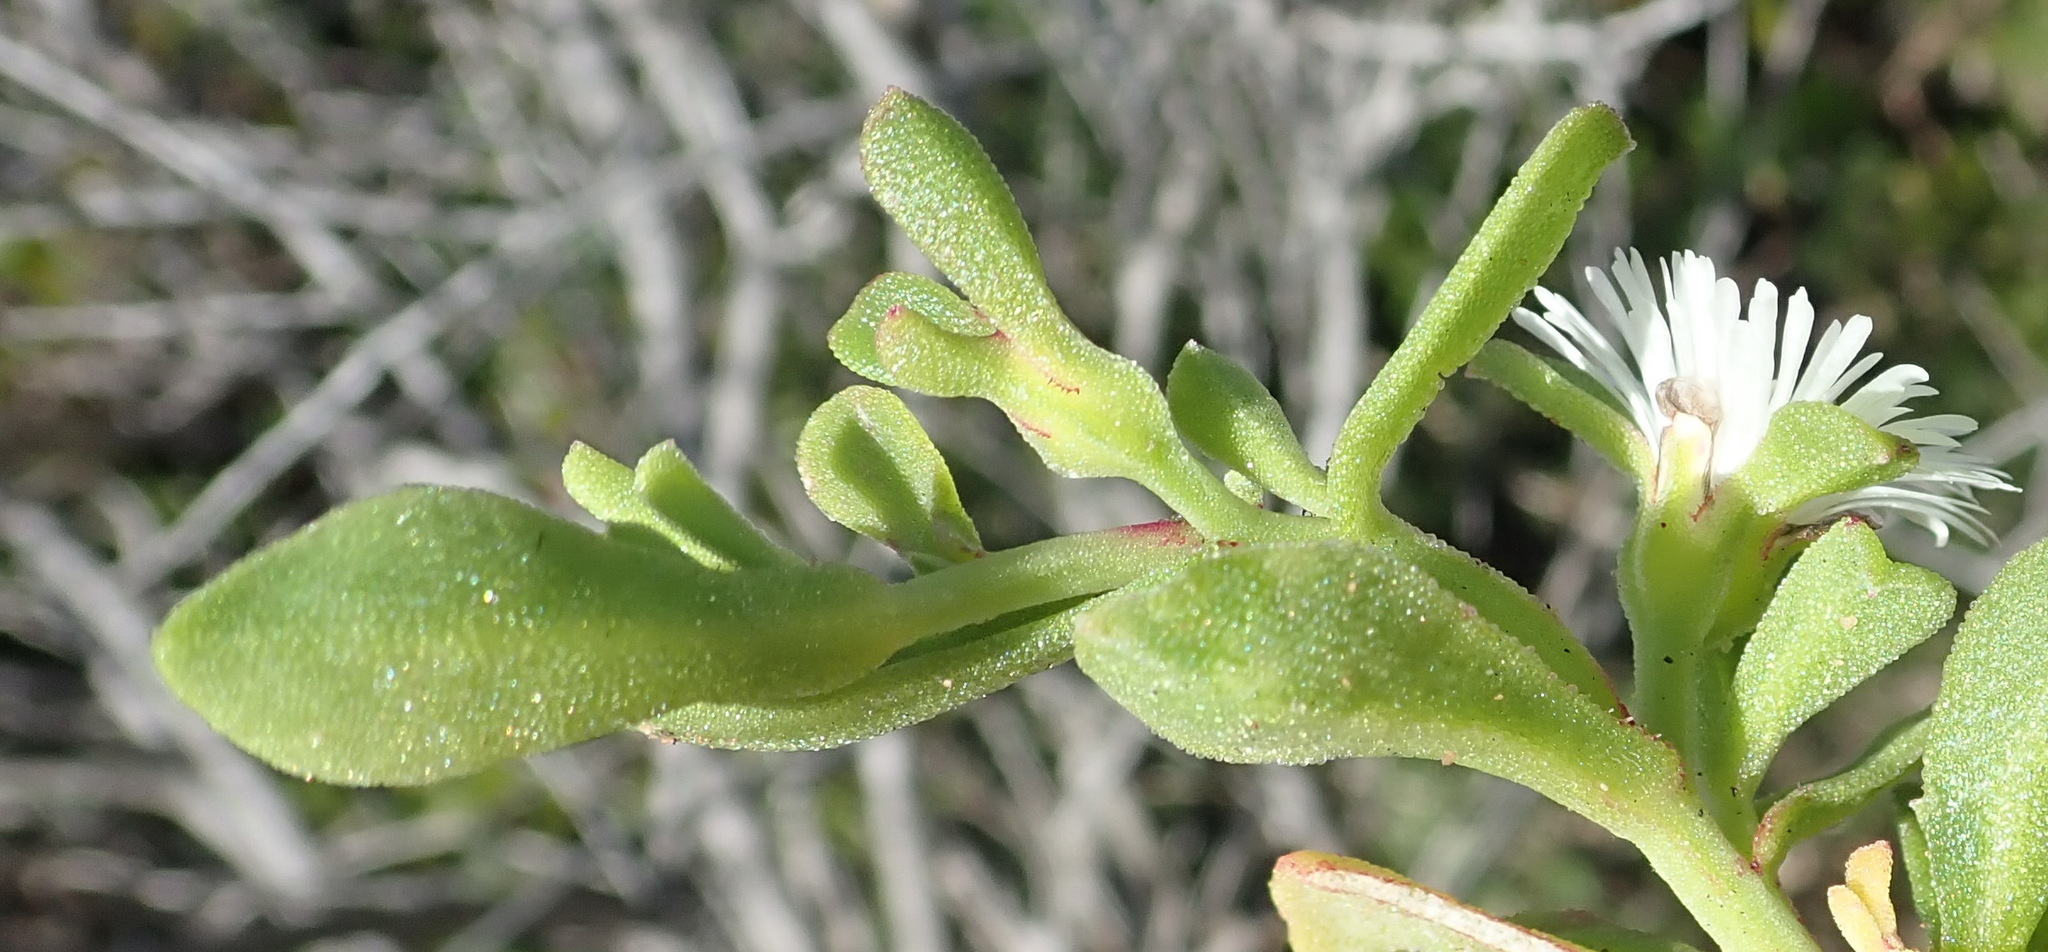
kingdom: Plantae
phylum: Tracheophyta
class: Magnoliopsida
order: Caryophyllales
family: Aizoaceae
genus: Mesembryanthemum
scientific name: Mesembryanthemum aitonis
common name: Angled iceplant
